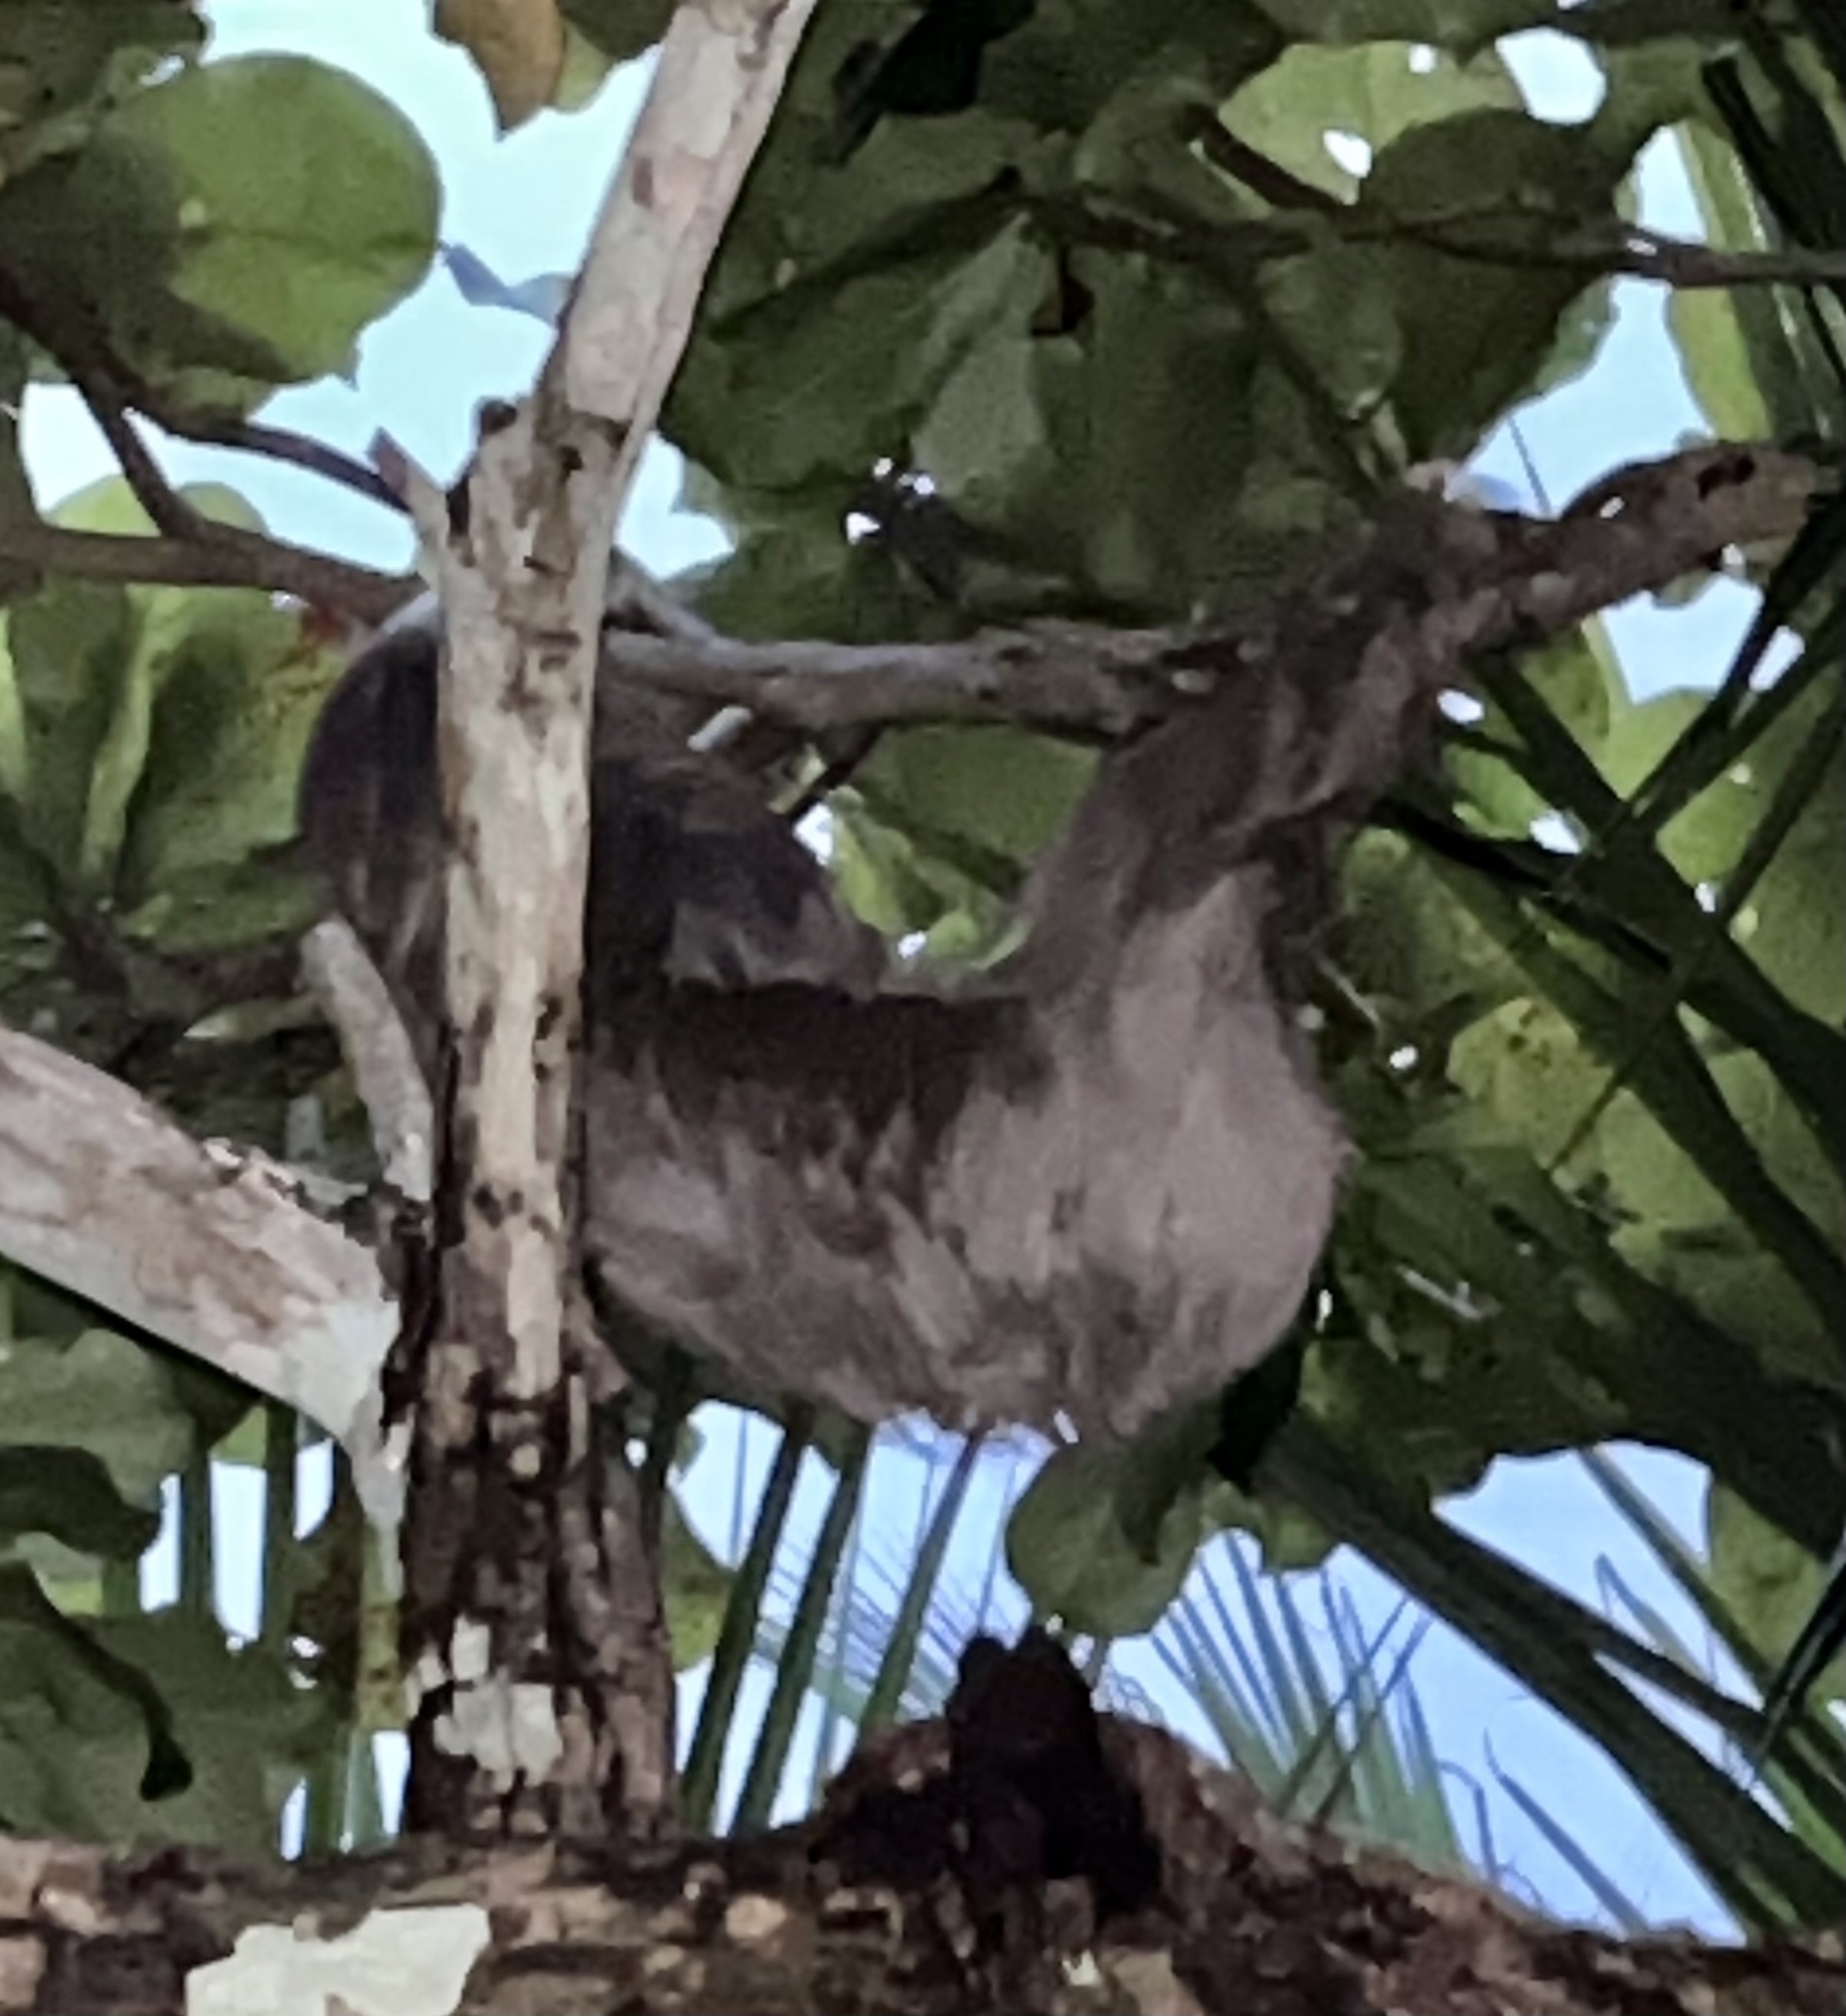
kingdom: Animalia
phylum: Chordata
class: Mammalia
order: Pilosa
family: Megalonychidae
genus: Choloepus
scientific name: Choloepus hoffmanni
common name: Hoffmann's two-toed sloth
